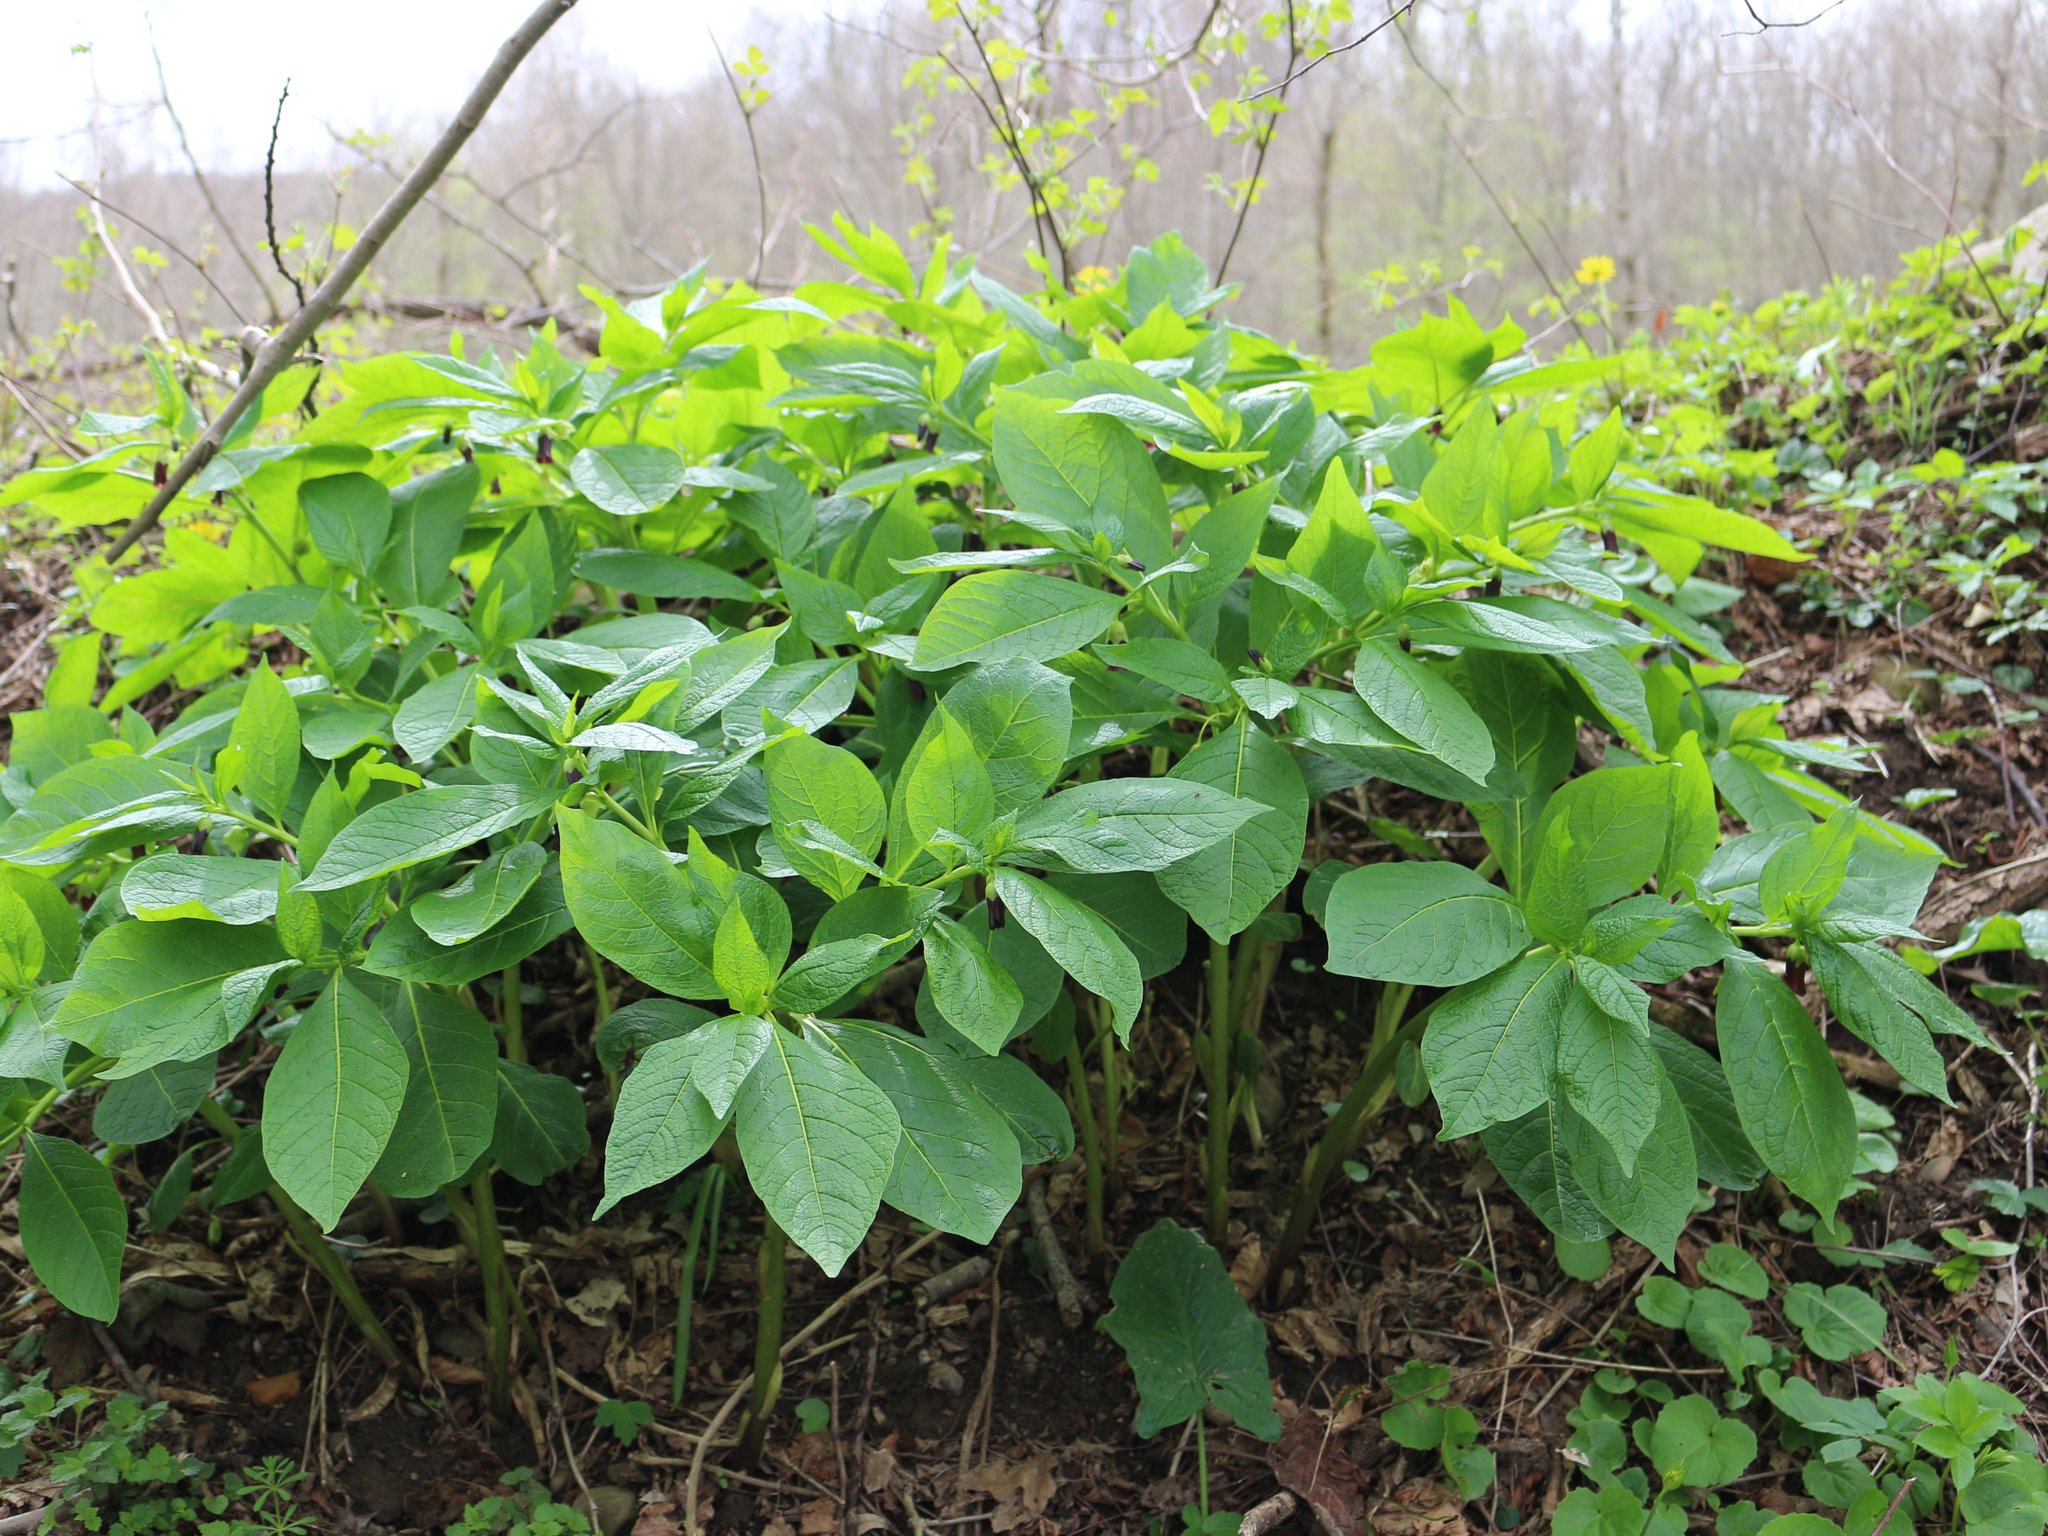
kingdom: Plantae
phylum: Tracheophyta
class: Magnoliopsida
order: Solanales
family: Solanaceae
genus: Scopolia
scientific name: Scopolia carniolica
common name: Scopolia
